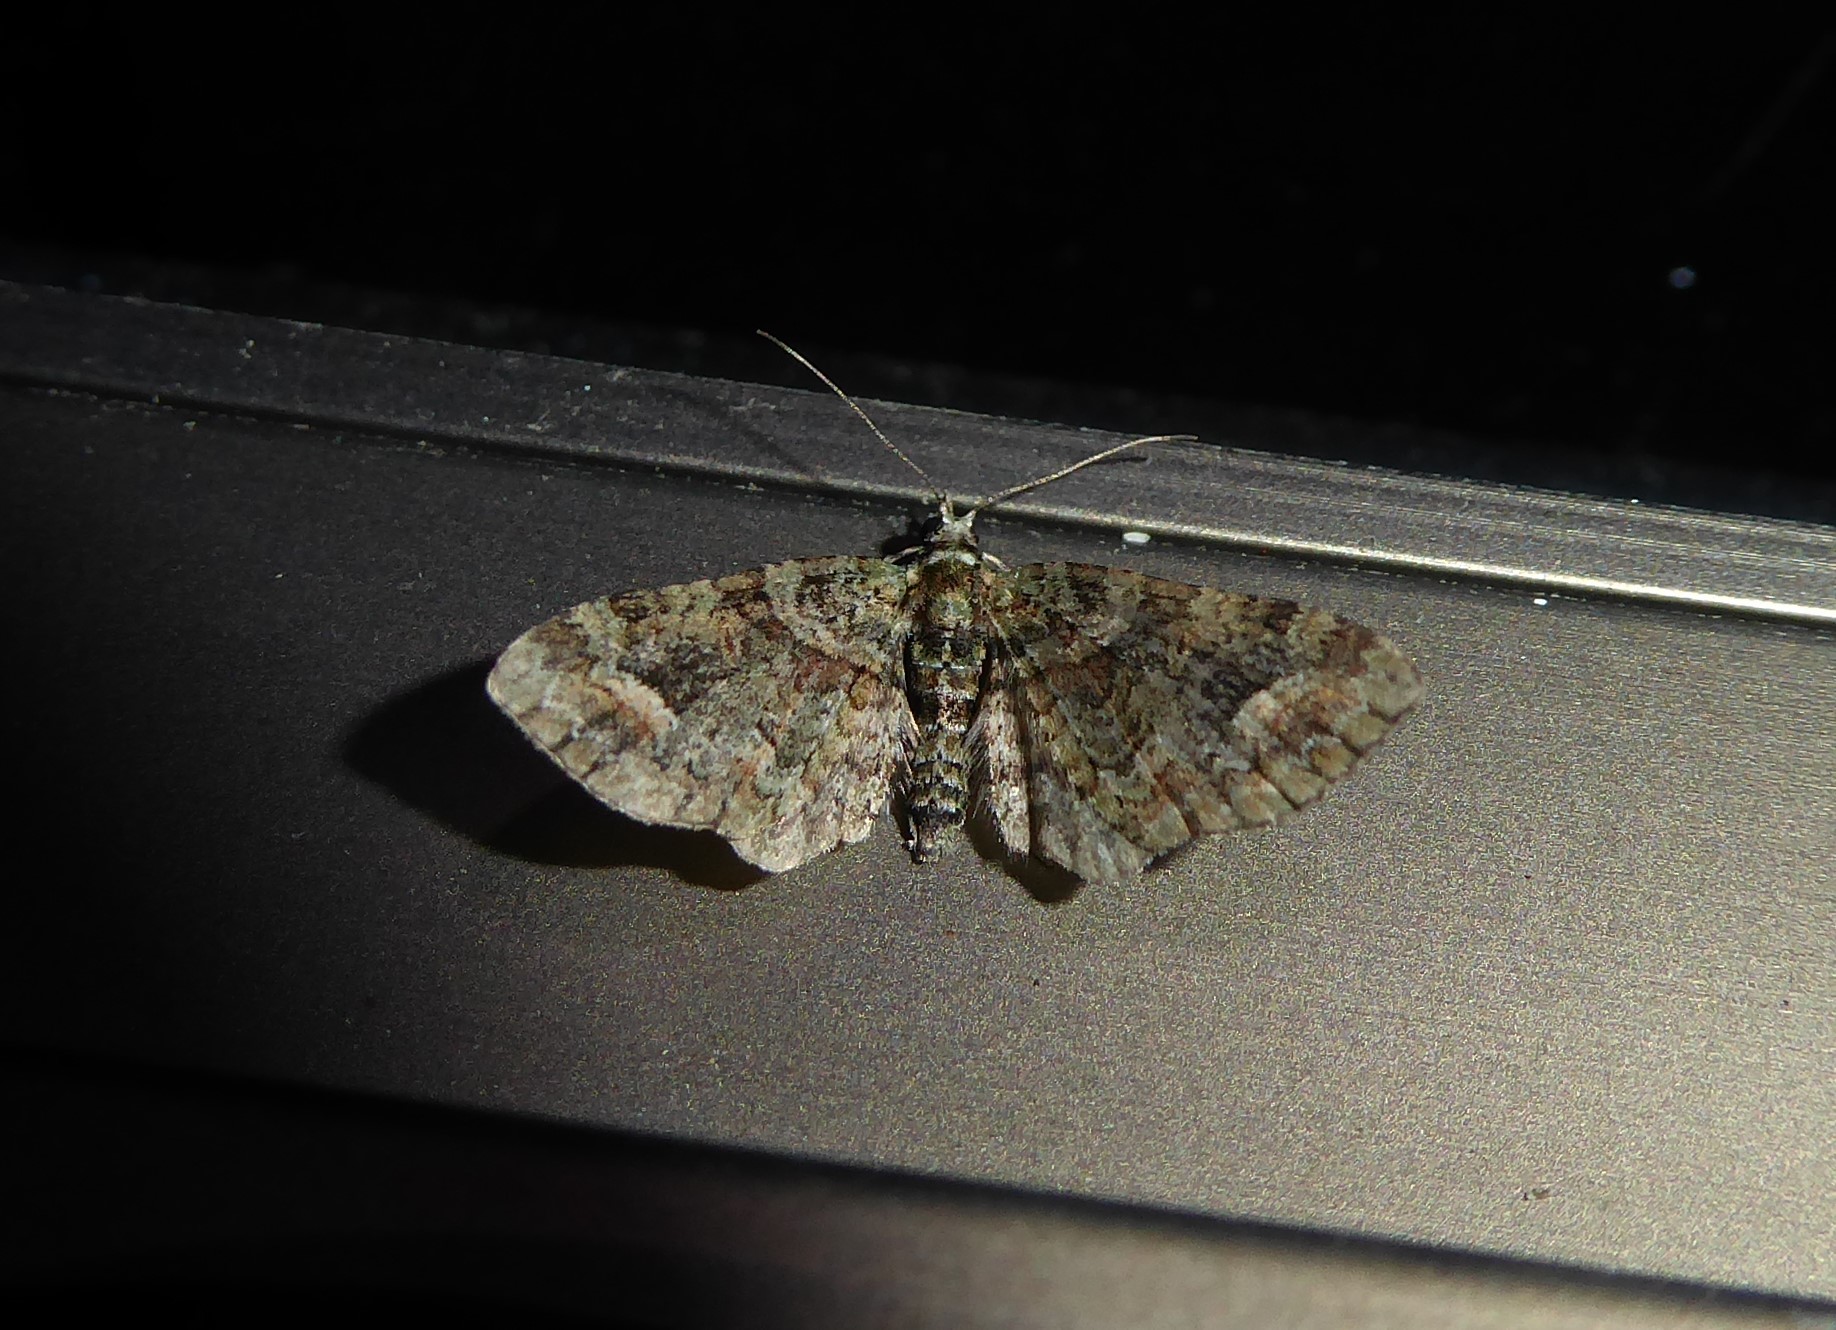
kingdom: Animalia
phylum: Arthropoda
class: Insecta
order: Lepidoptera
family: Geometridae
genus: Idaea
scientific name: Idaea mutanda
